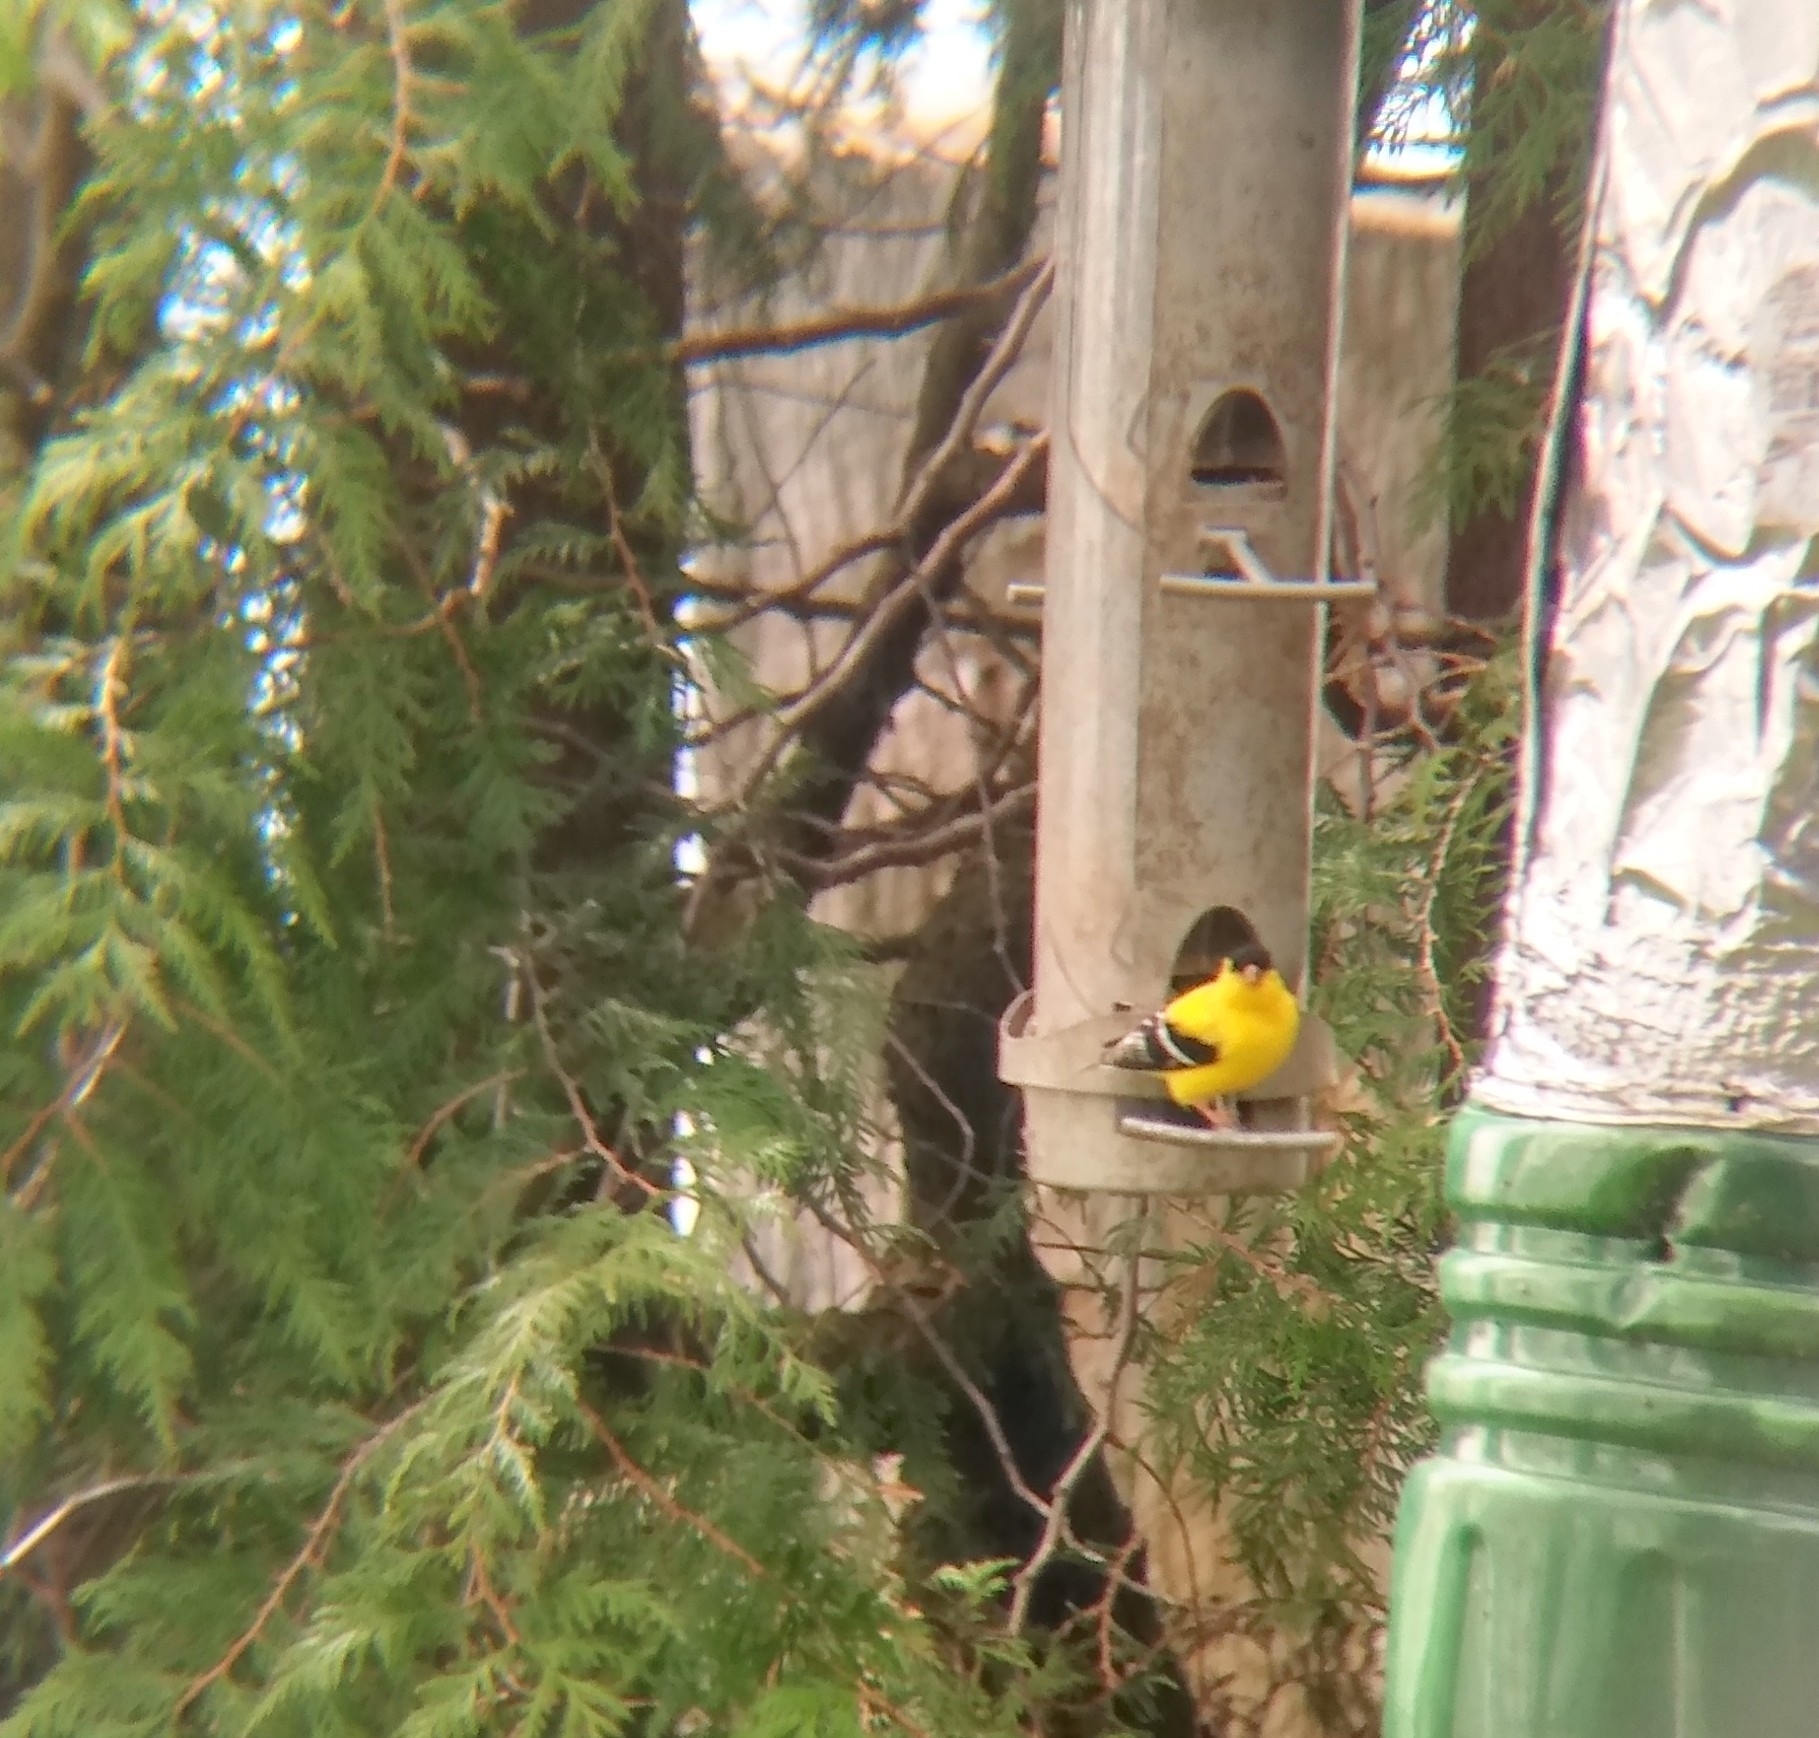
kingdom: Animalia
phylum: Chordata
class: Aves
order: Passeriformes
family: Fringillidae
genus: Spinus
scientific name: Spinus tristis
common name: American goldfinch
